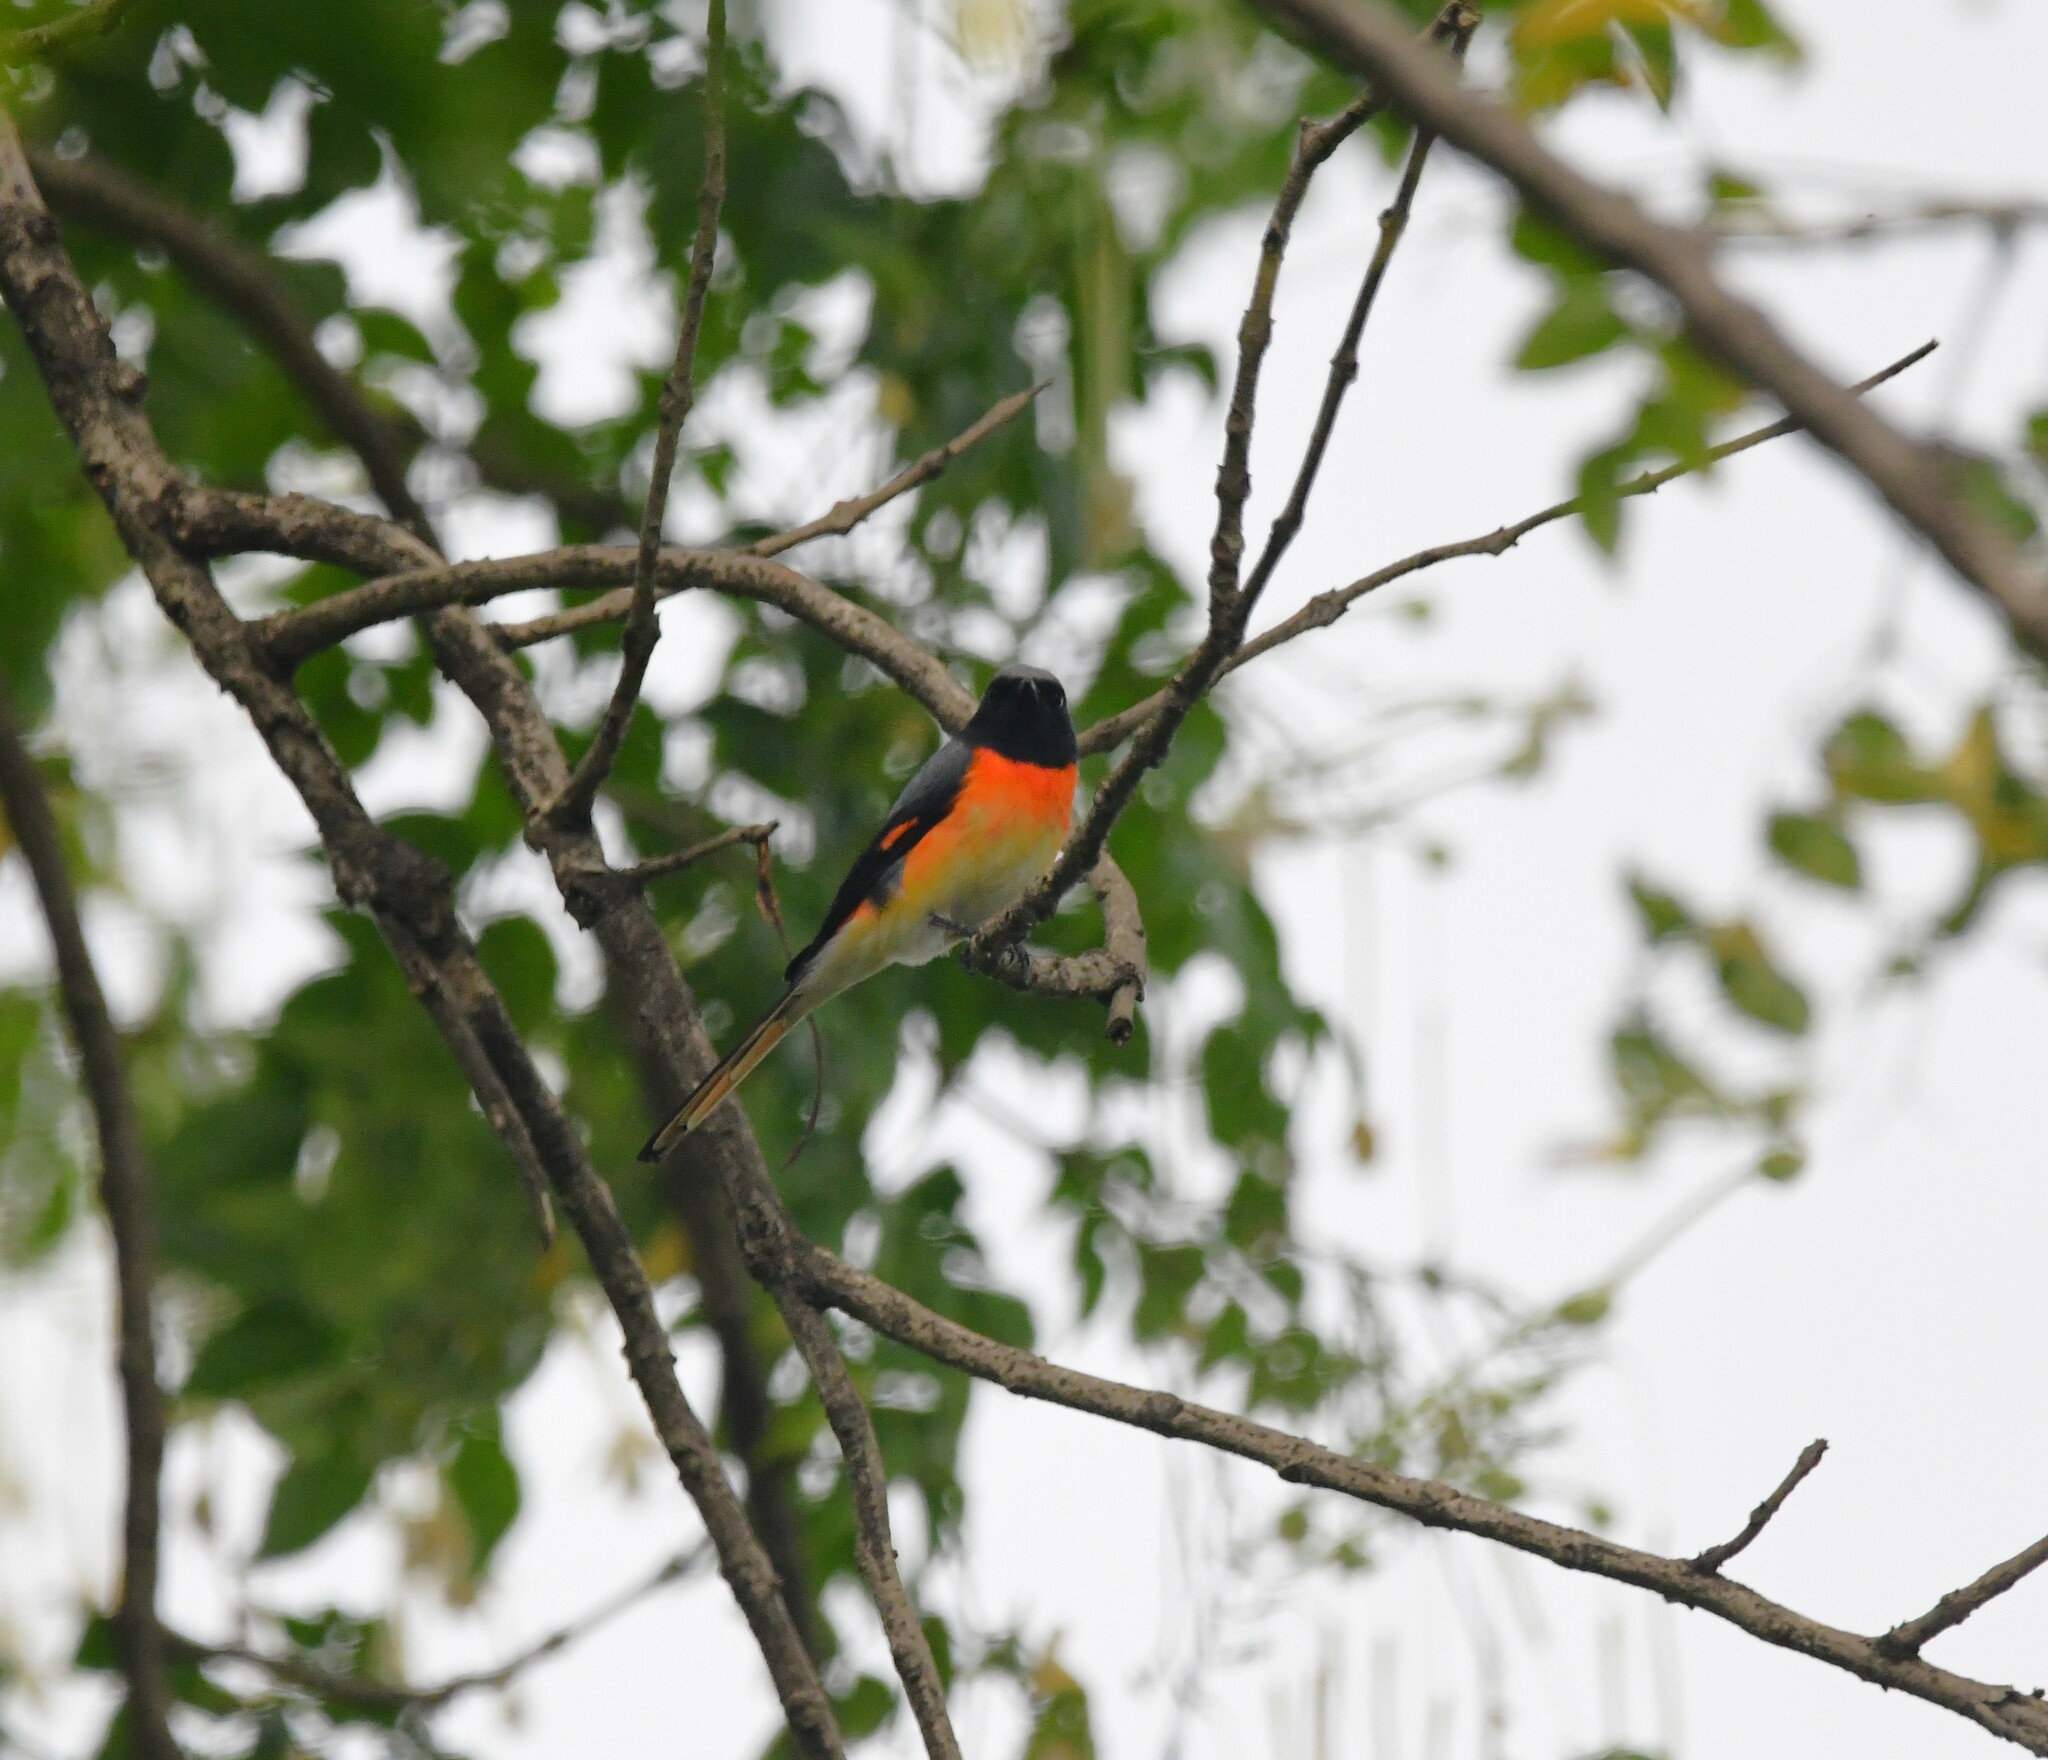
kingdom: Animalia
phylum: Chordata
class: Aves
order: Passeriformes
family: Campephagidae
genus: Pericrocotus
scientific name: Pericrocotus cinnamomeus
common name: Small minivet
